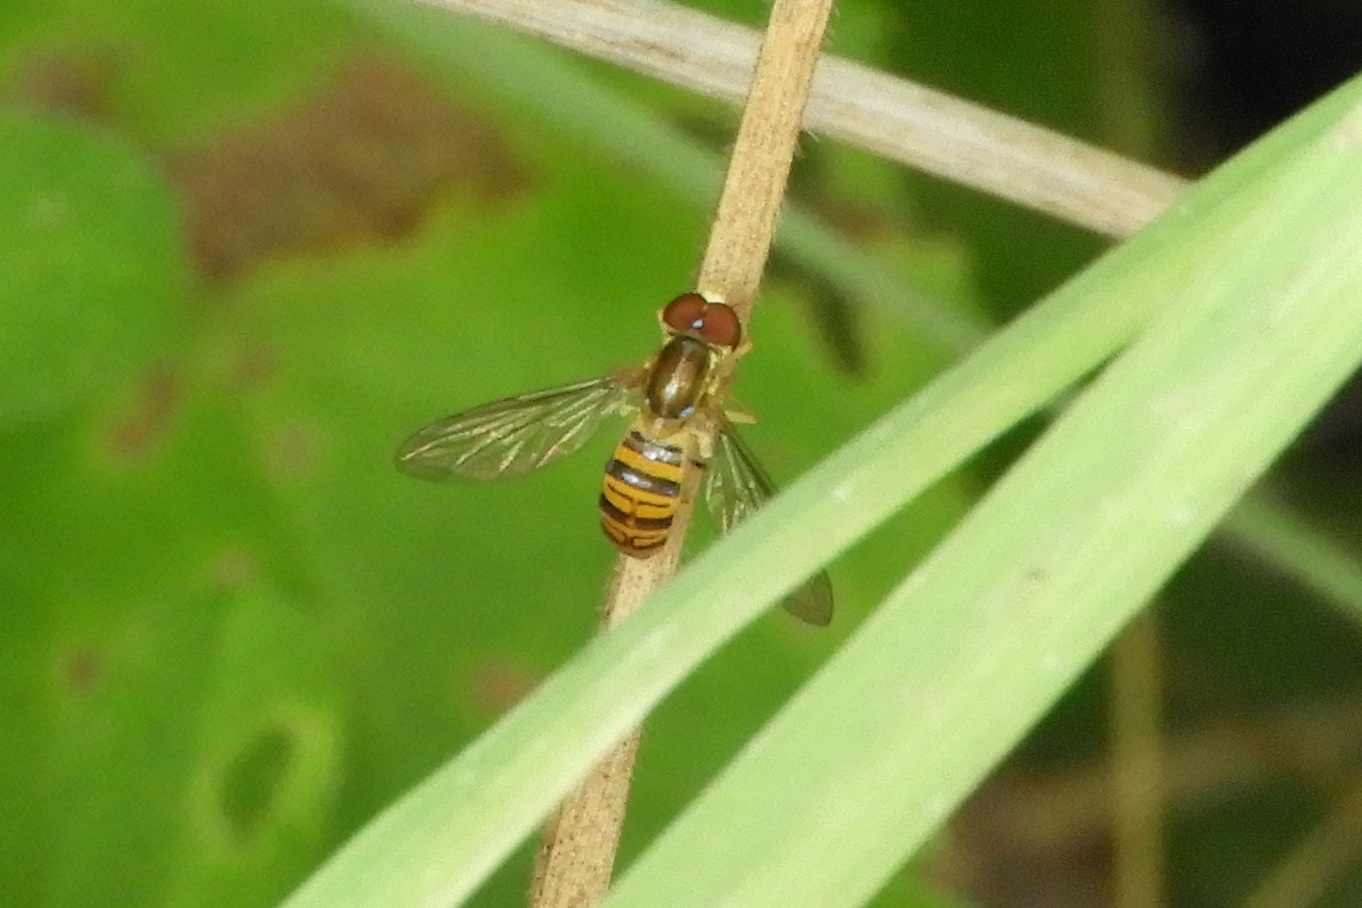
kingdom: Animalia
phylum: Arthropoda
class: Insecta
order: Diptera
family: Syrphidae
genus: Toxomerus
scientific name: Toxomerus politus
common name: Maize calligrapher
